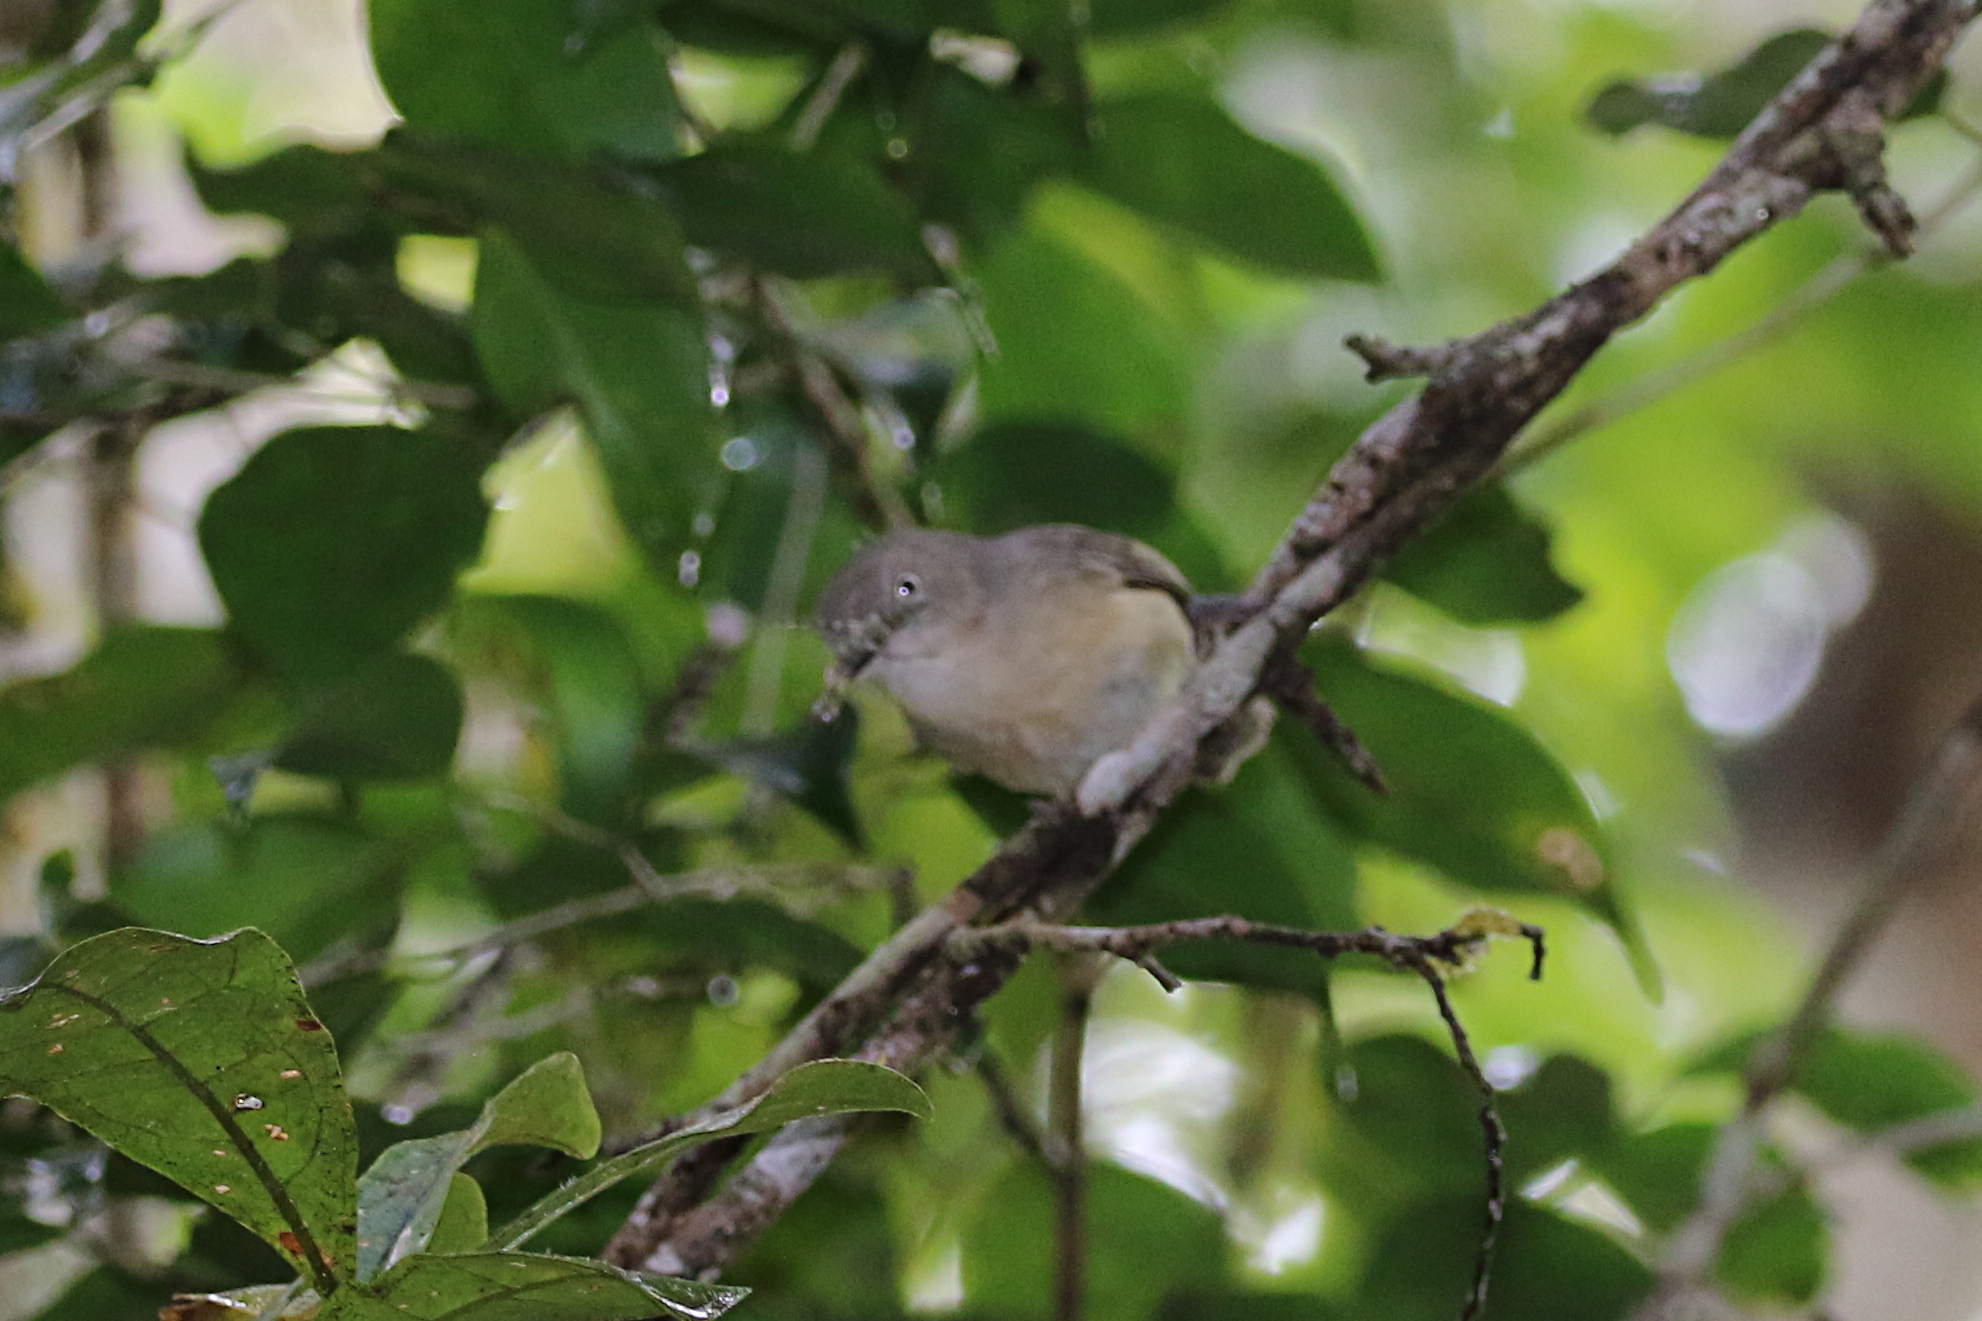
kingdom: Animalia
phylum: Chordata
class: Aves
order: Passeriformes
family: Vangidae
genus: Newtonia
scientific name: Newtonia brunneicauda
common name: Common newtonia
